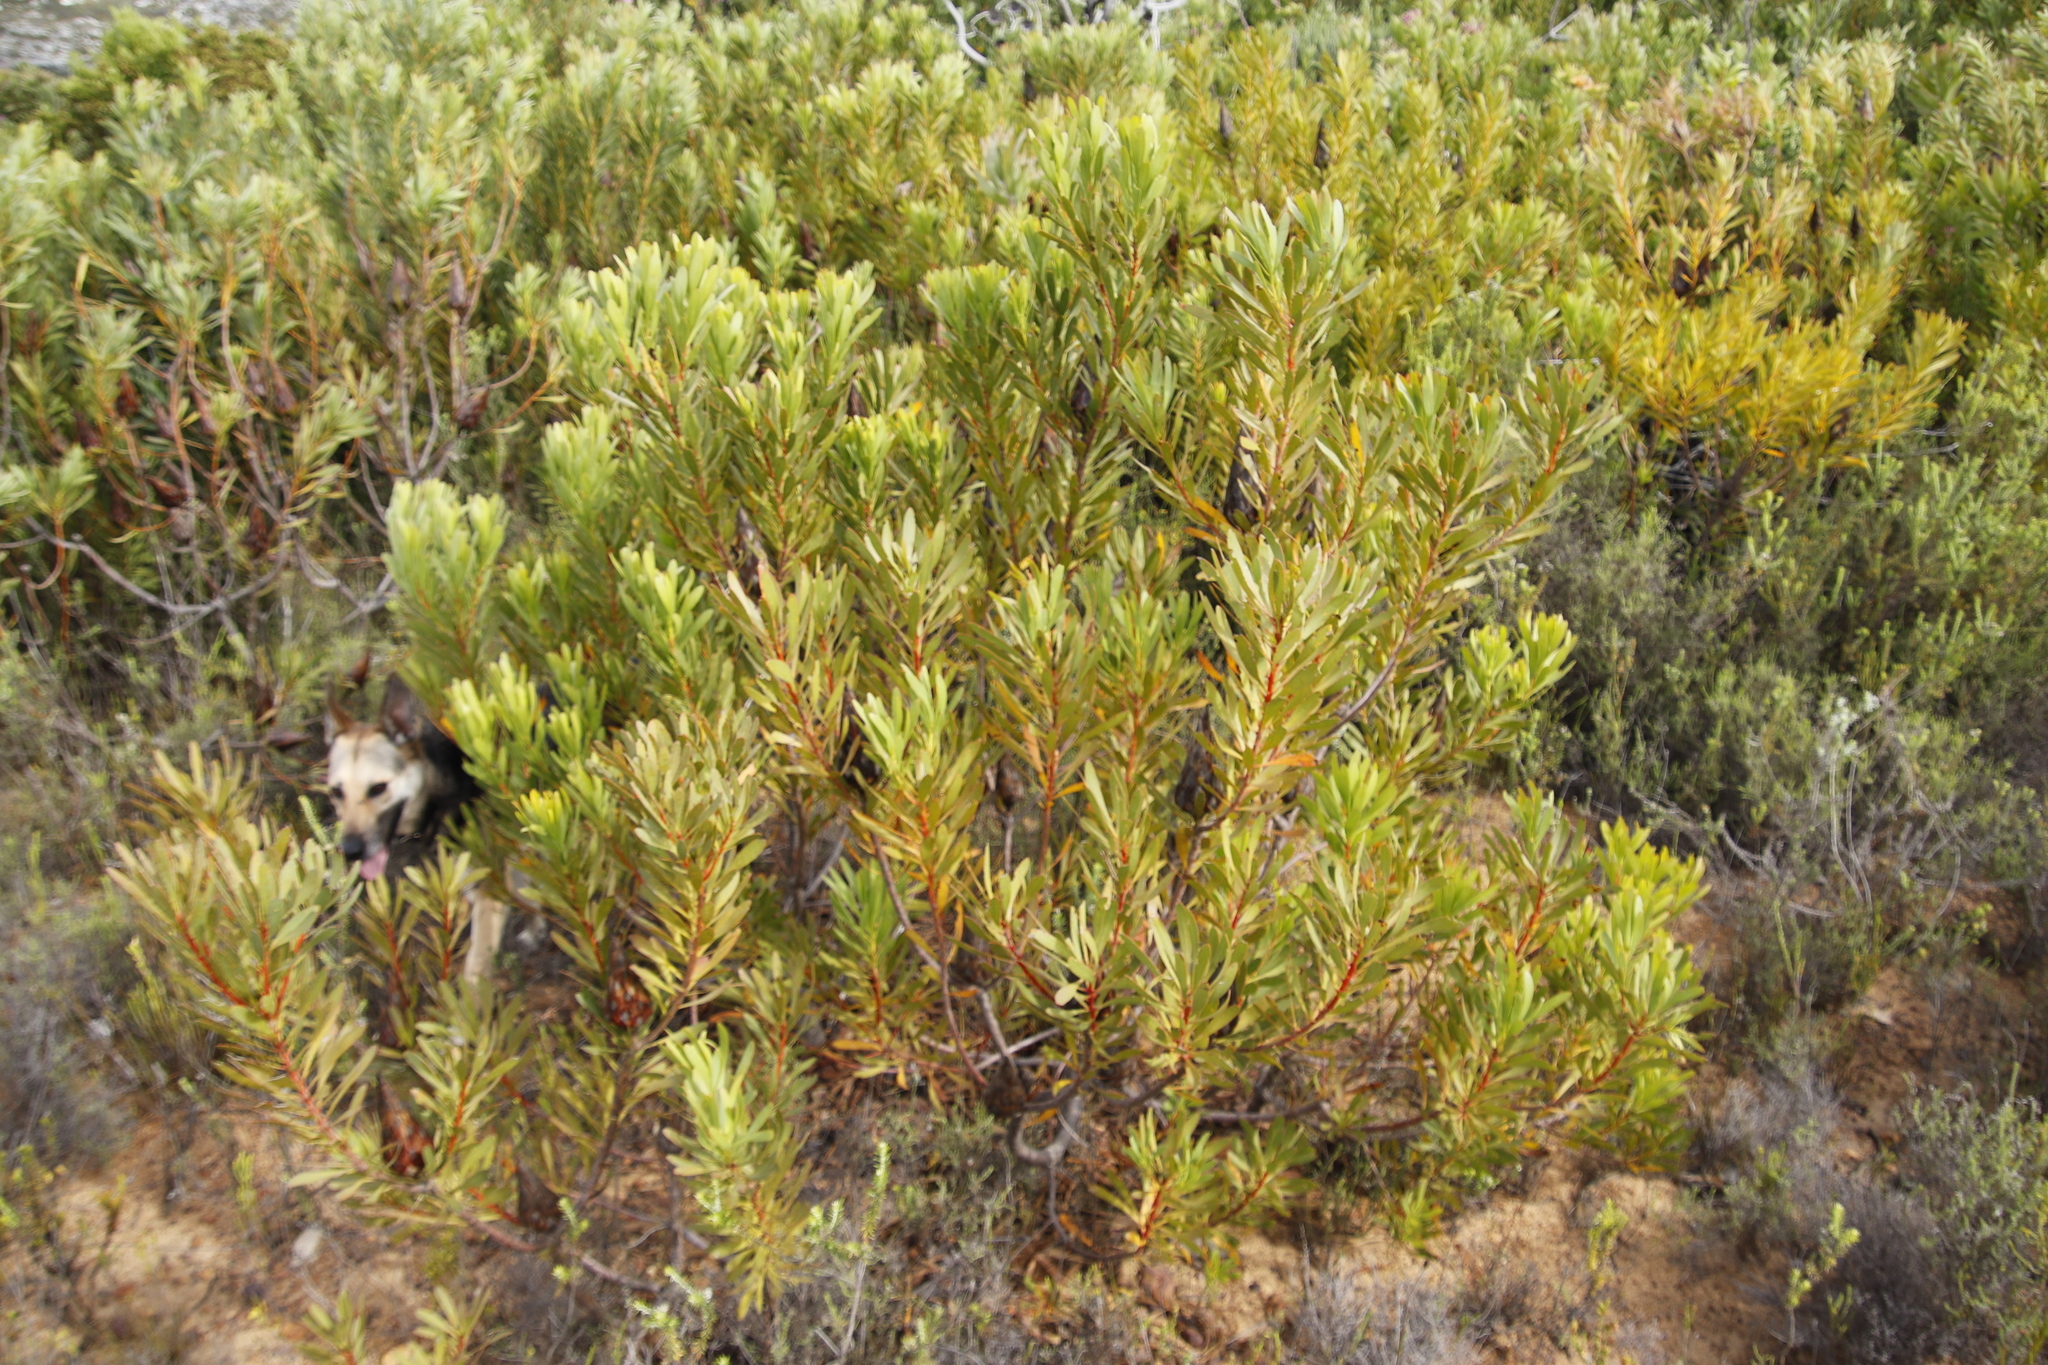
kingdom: Plantae
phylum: Tracheophyta
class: Magnoliopsida
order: Proteales
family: Proteaceae
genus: Protea
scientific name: Protea repens
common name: Sugarbush
